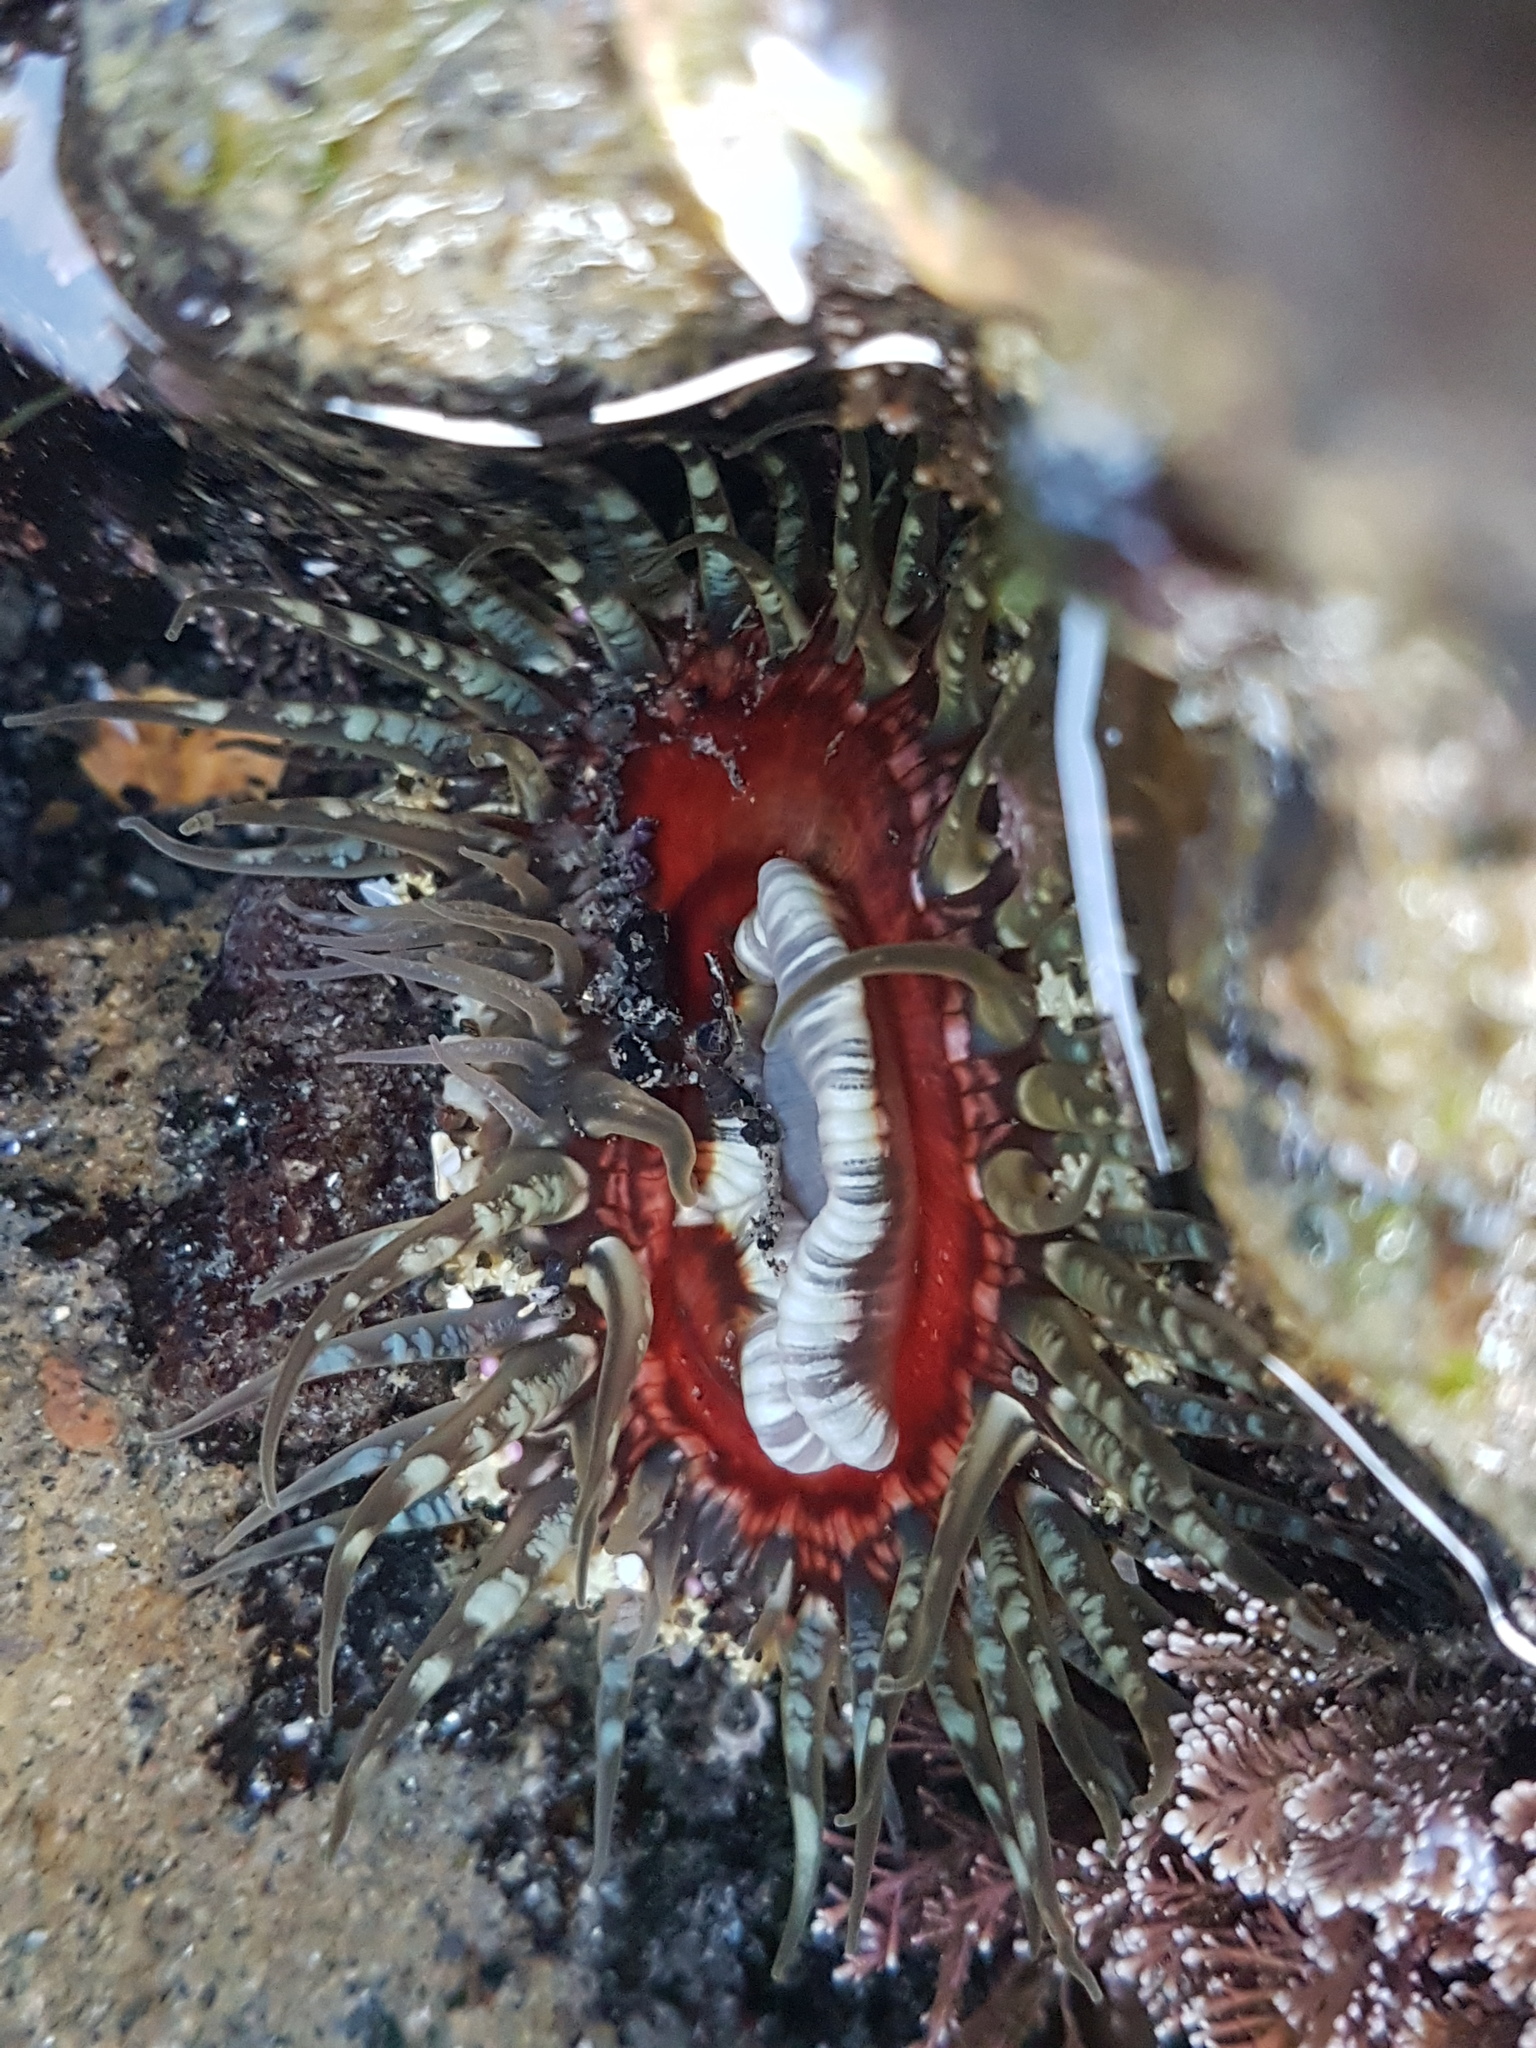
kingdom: Animalia
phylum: Cnidaria
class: Anthozoa
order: Actiniaria
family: Actiniidae
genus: Oulactis
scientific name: Oulactis muscosa
